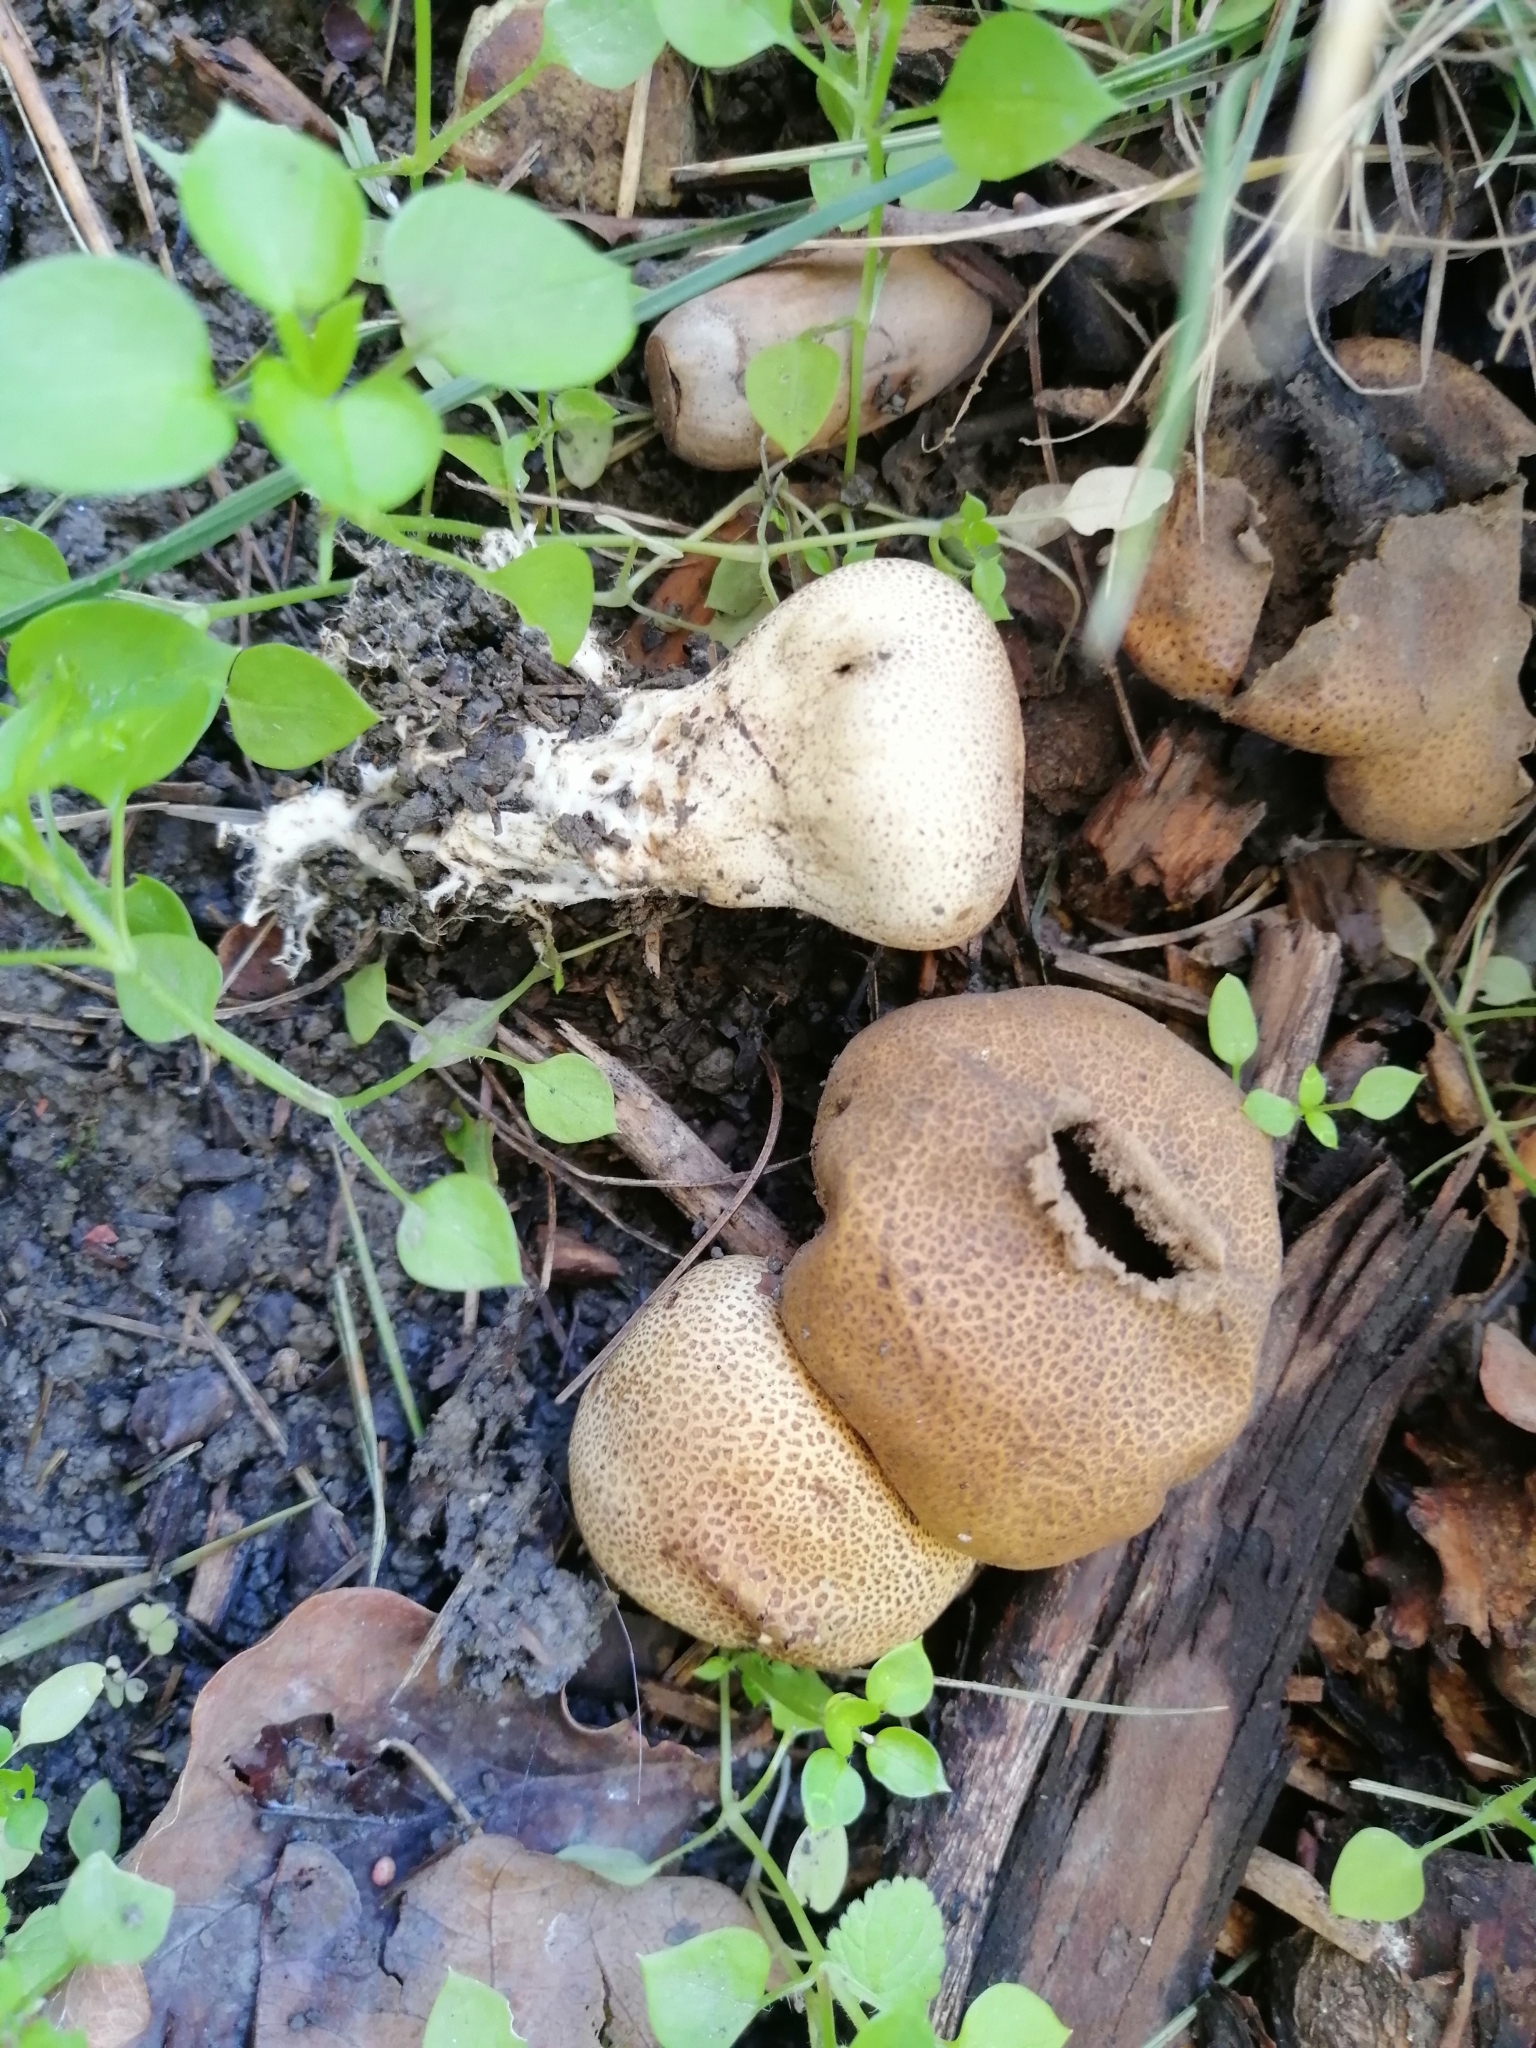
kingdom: Fungi
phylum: Basidiomycota
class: Agaricomycetes
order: Boletales
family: Sclerodermataceae
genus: Scleroderma
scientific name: Scleroderma verrucosum
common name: Scaly earthball
